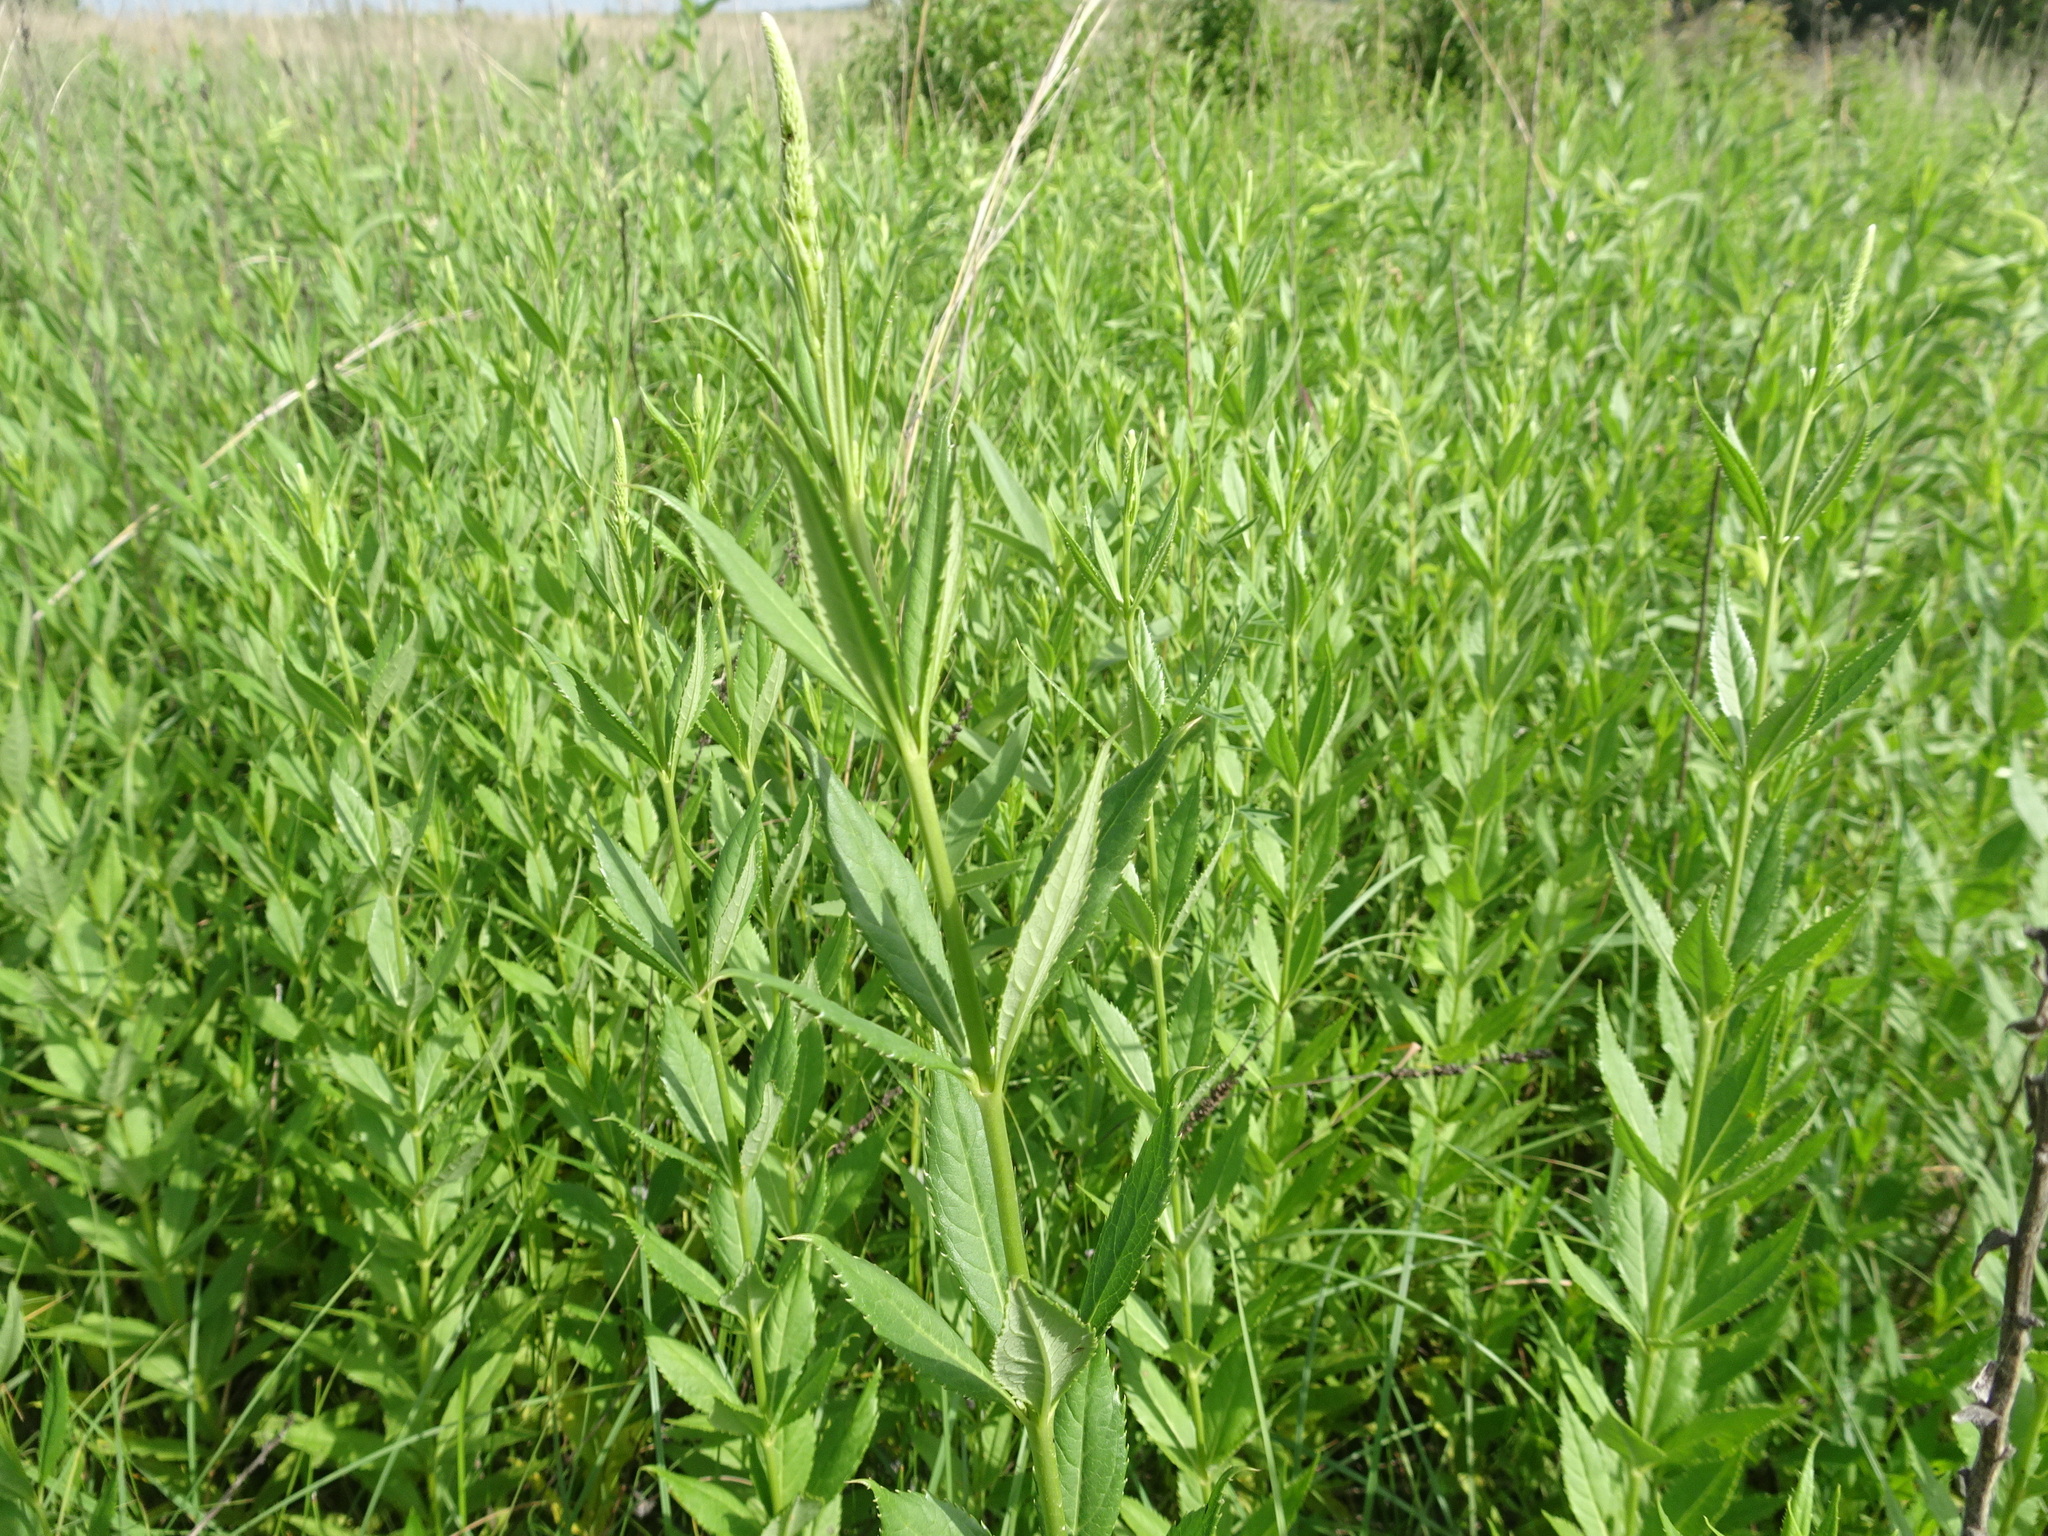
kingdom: Plantae
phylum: Tracheophyta
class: Magnoliopsida
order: Lamiales
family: Plantaginaceae
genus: Veronicastrum
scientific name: Veronicastrum virginicum
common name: Blackroot
